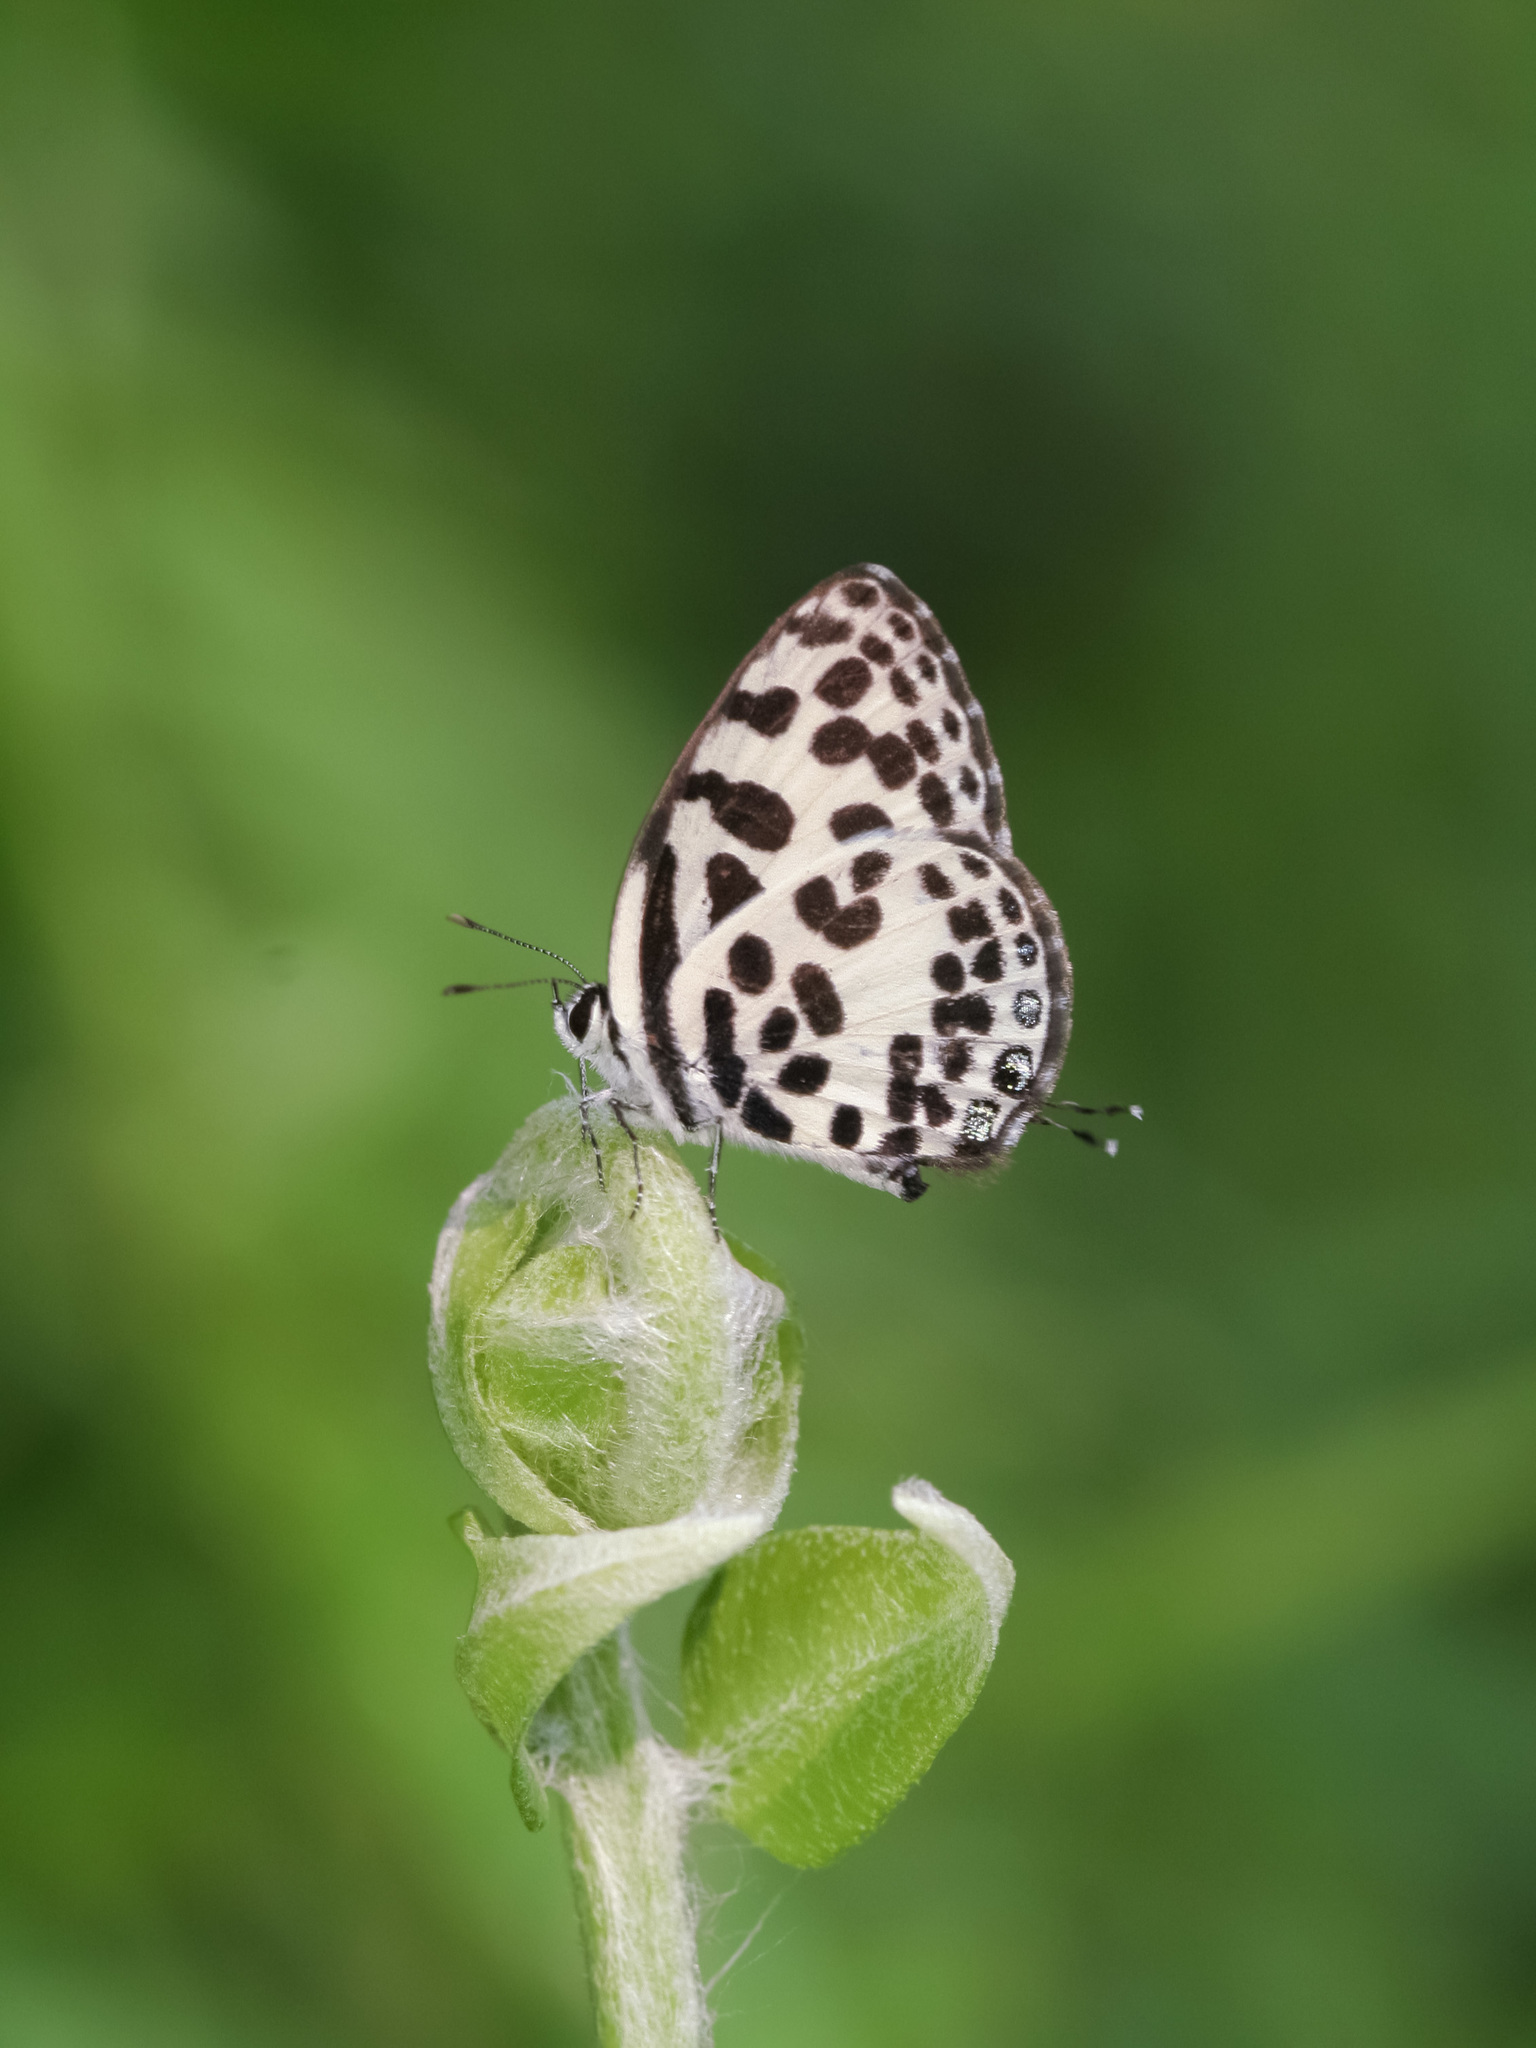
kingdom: Animalia
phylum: Arthropoda
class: Insecta
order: Lepidoptera
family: Lycaenidae
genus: Castalius
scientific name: Castalius rosimon
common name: Common pierrot
